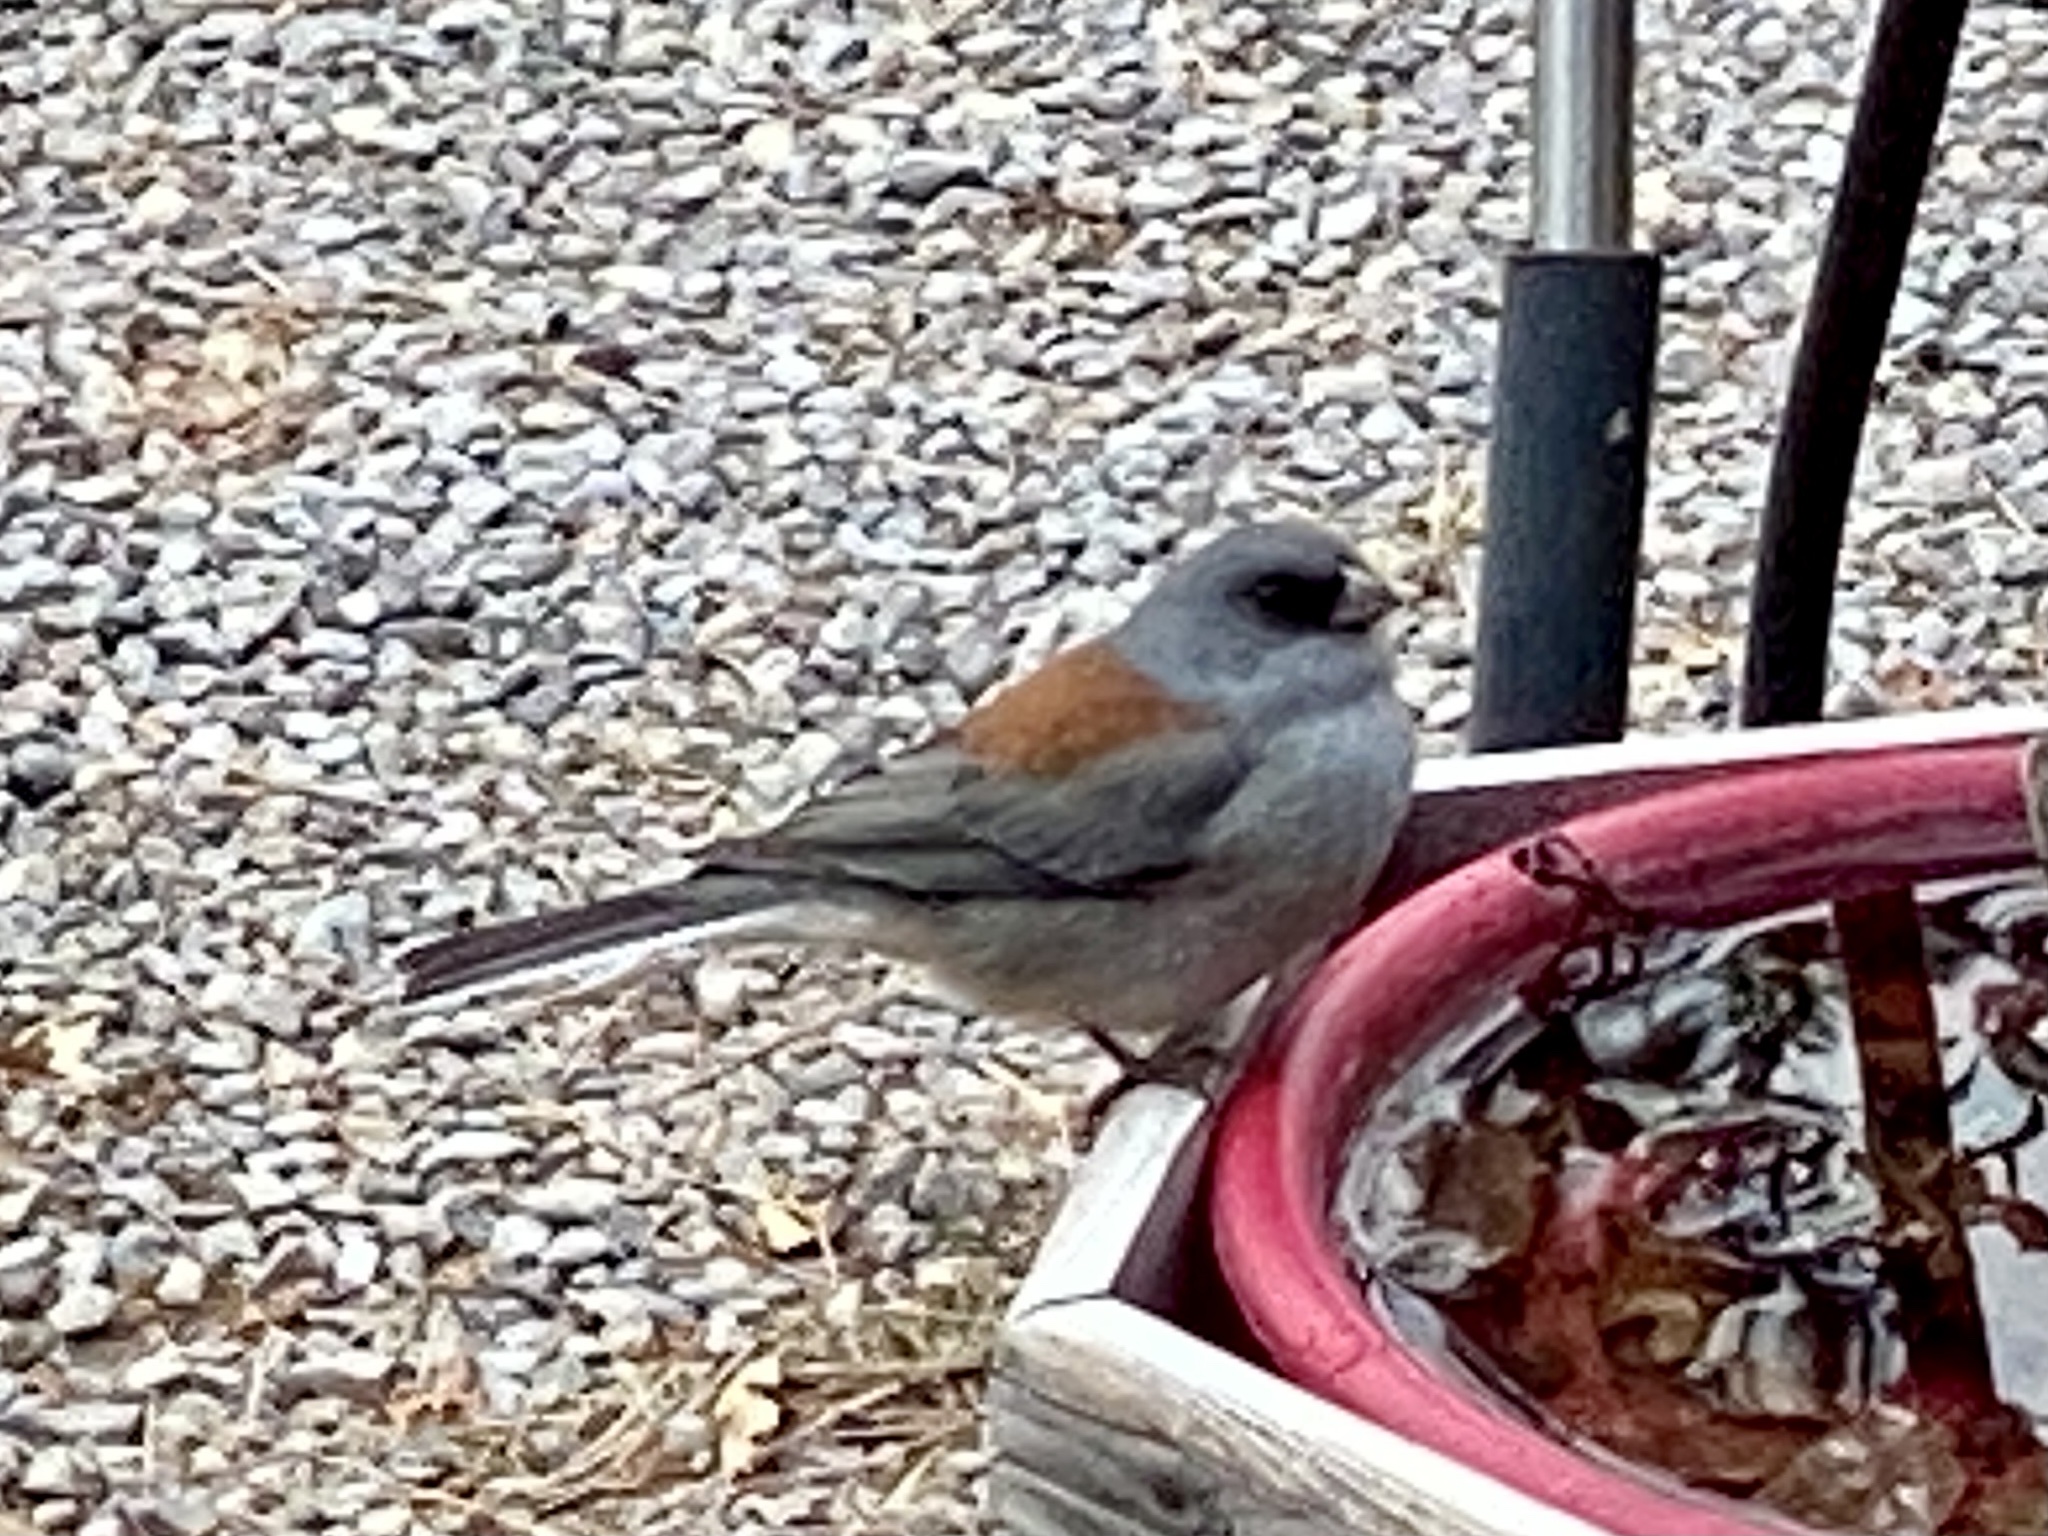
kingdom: Animalia
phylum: Chordata
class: Aves
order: Passeriformes
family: Passerellidae
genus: Junco
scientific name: Junco hyemalis
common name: Dark-eyed junco
